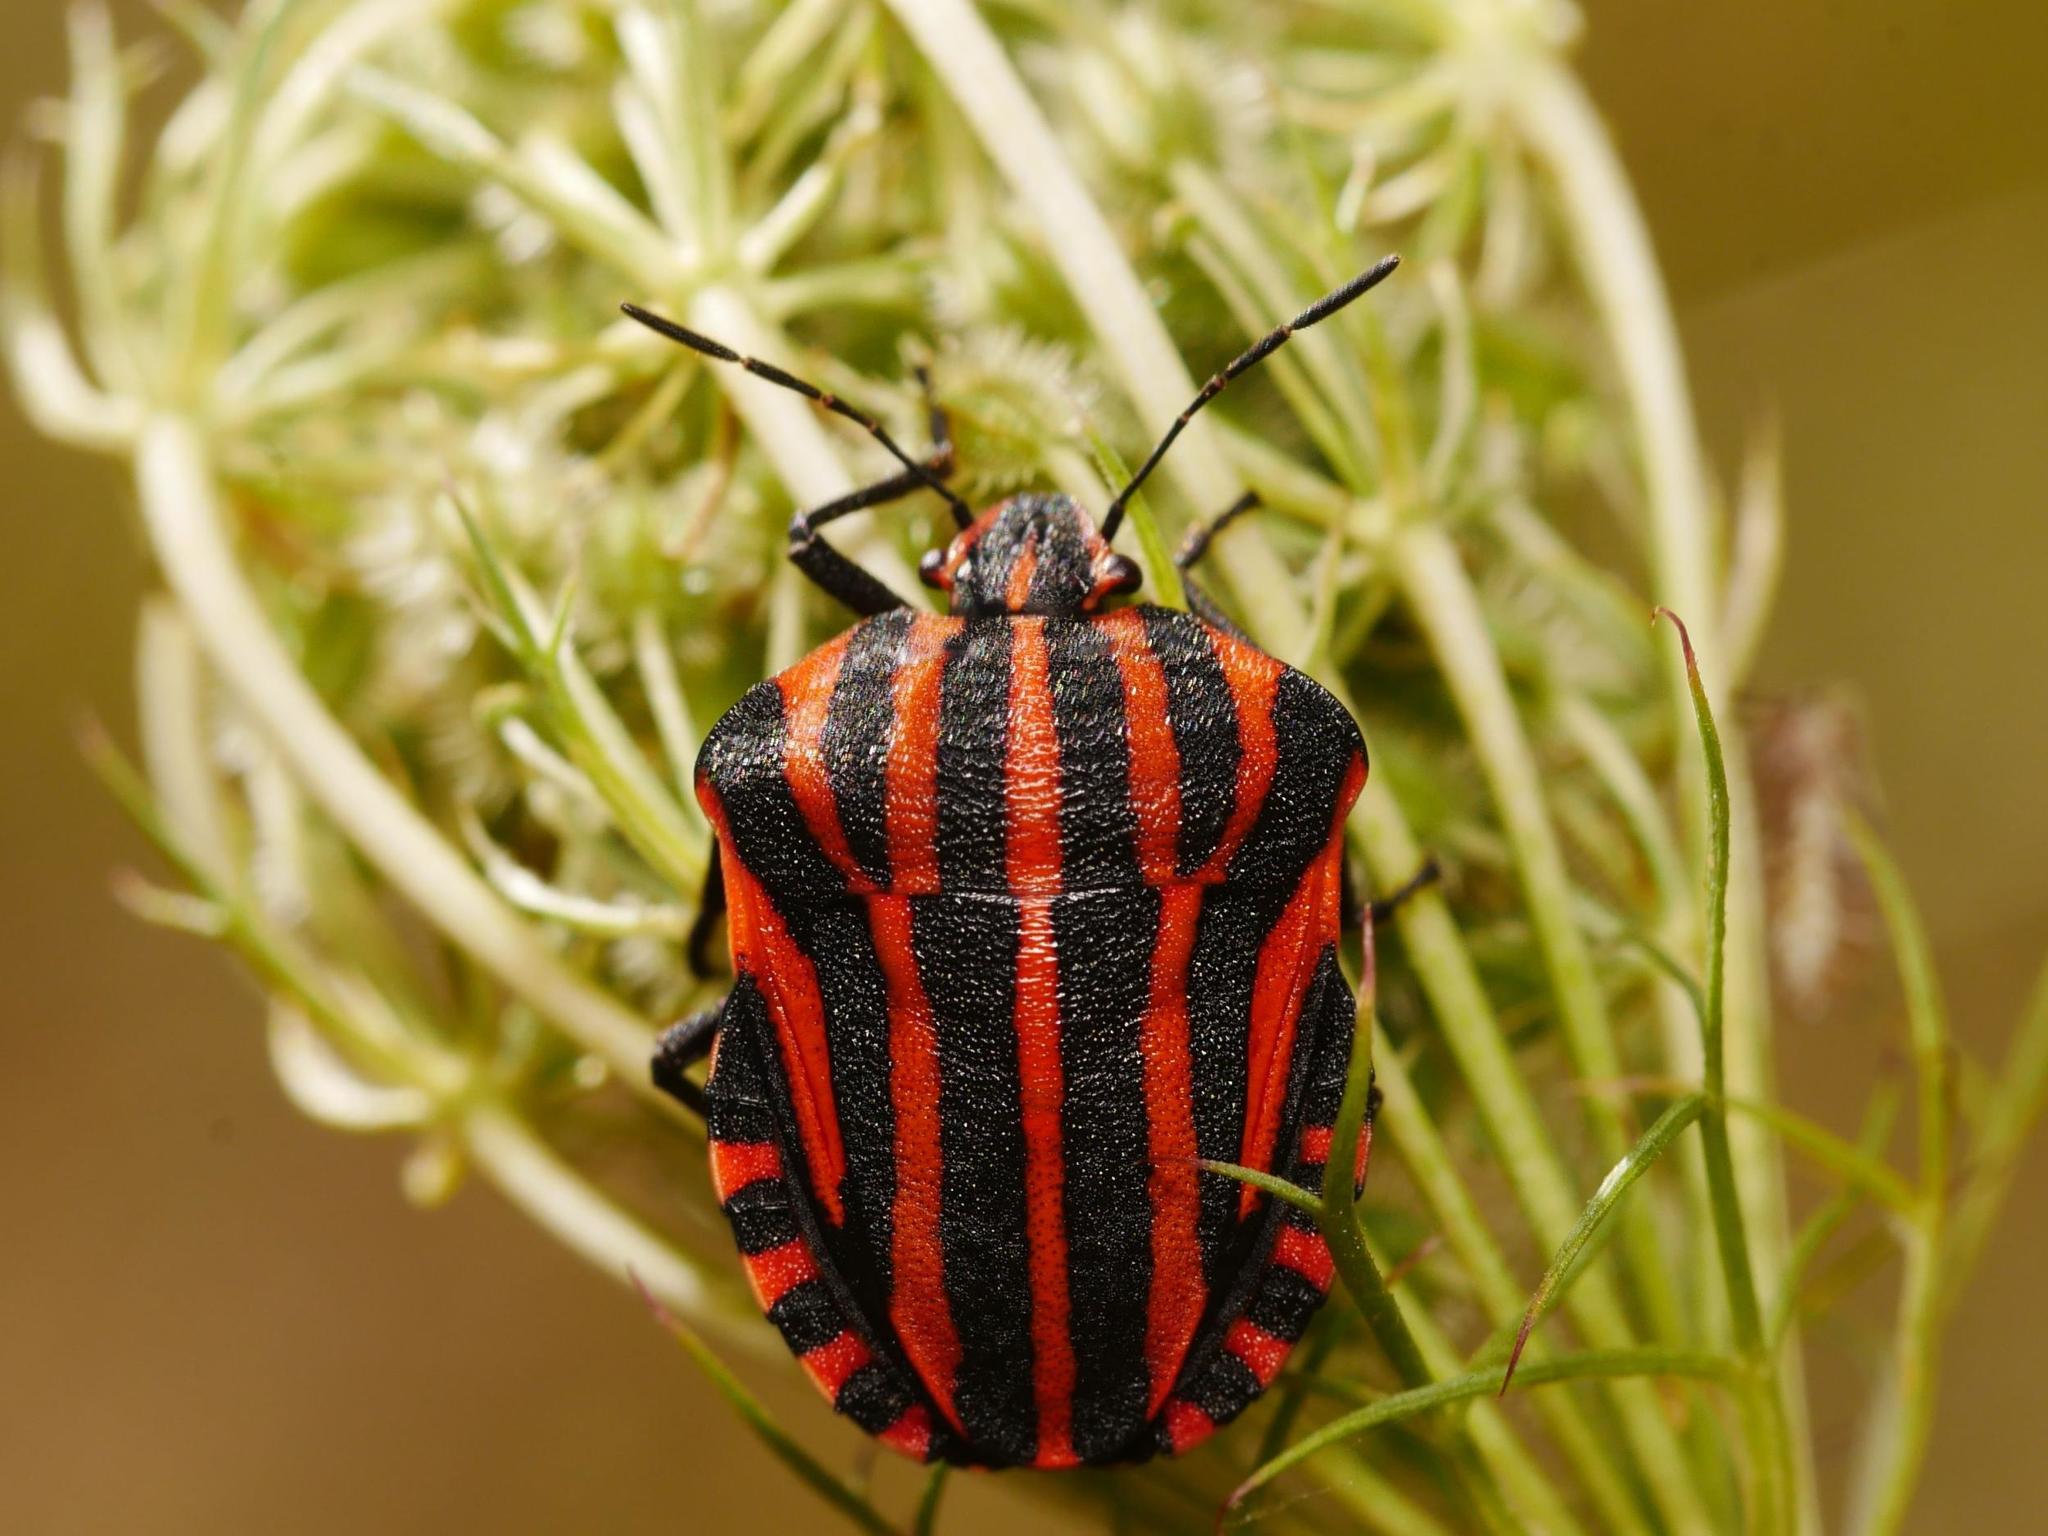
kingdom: Animalia
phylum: Arthropoda
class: Insecta
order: Hemiptera
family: Pentatomidae
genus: Graphosoma
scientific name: Graphosoma italicum
